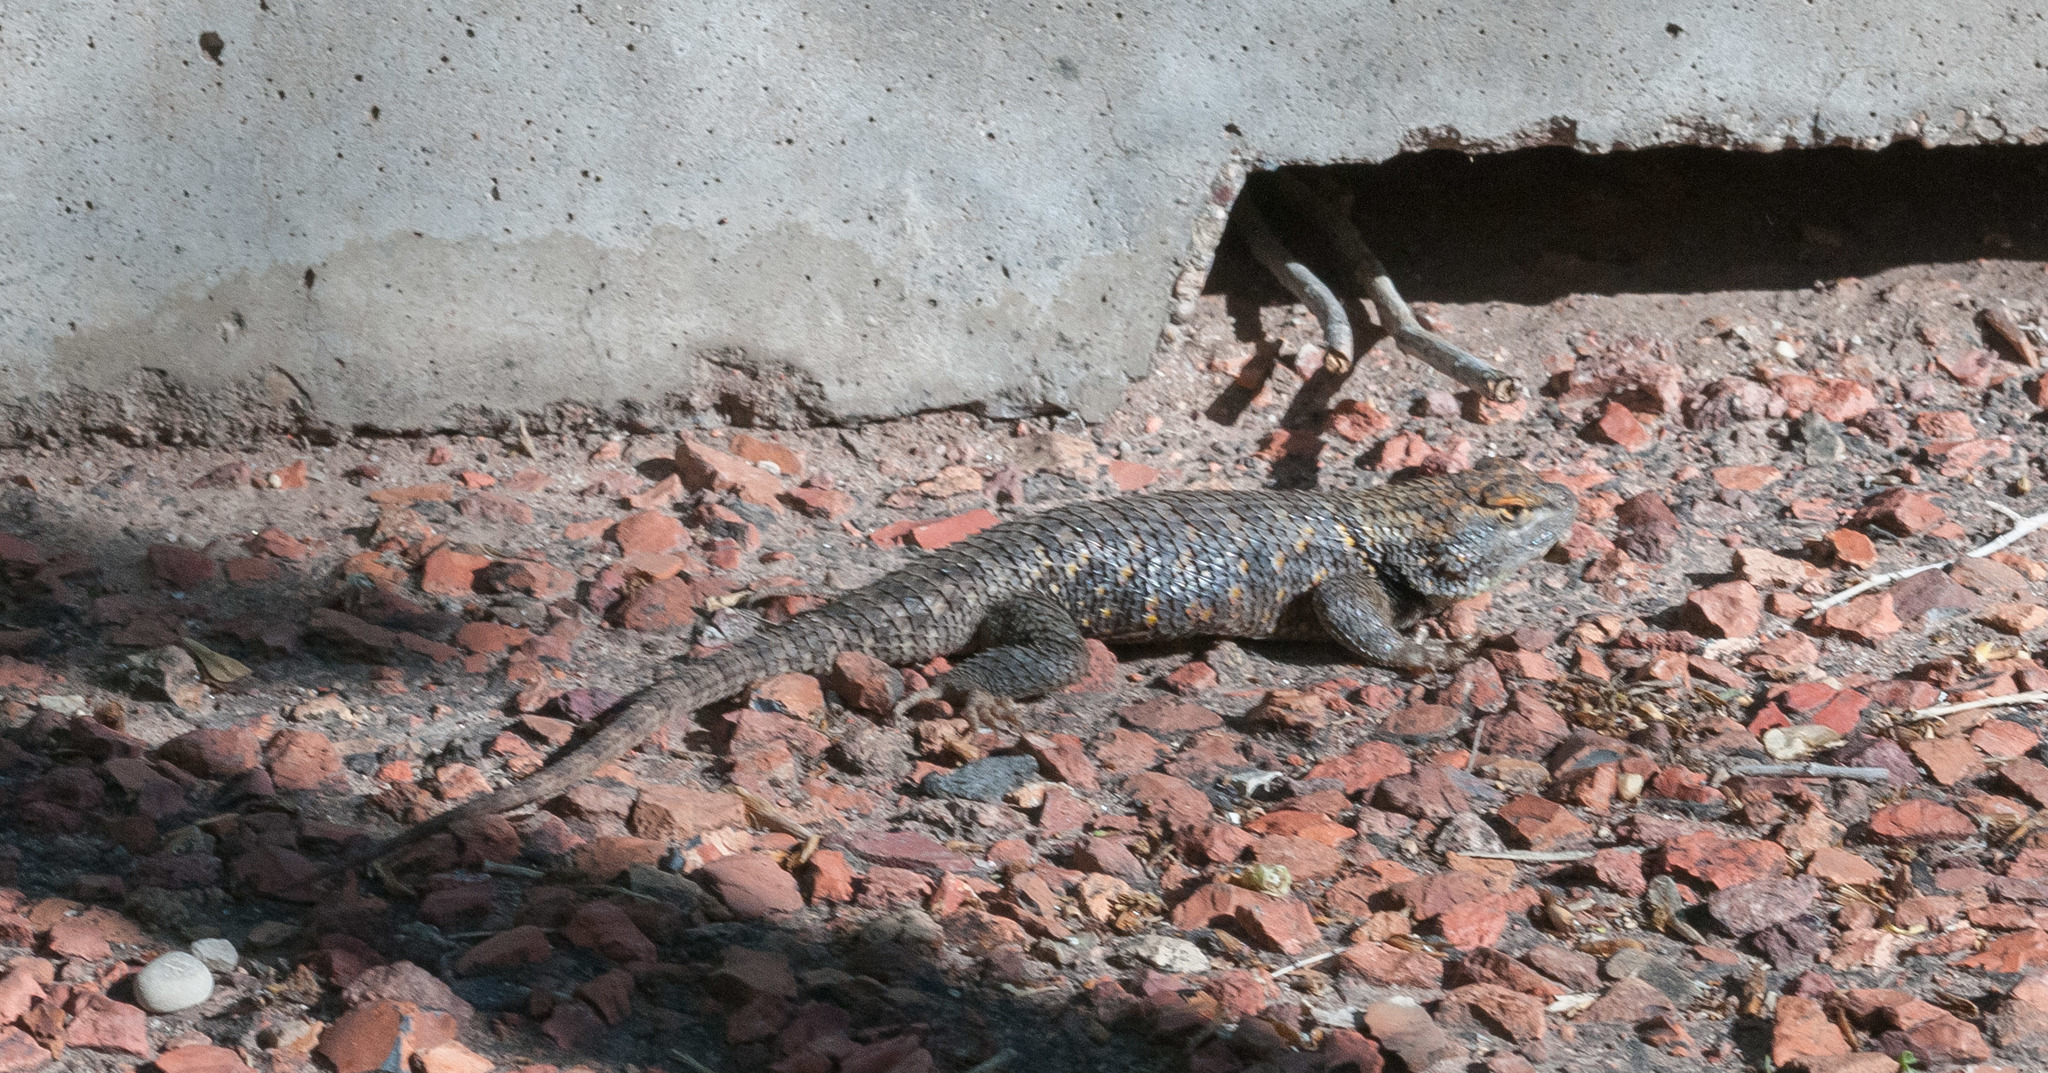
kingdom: Animalia
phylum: Chordata
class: Squamata
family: Phrynosomatidae
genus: Sceloporus
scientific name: Sceloporus uniformis
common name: Yellow-backed spiny lizard
